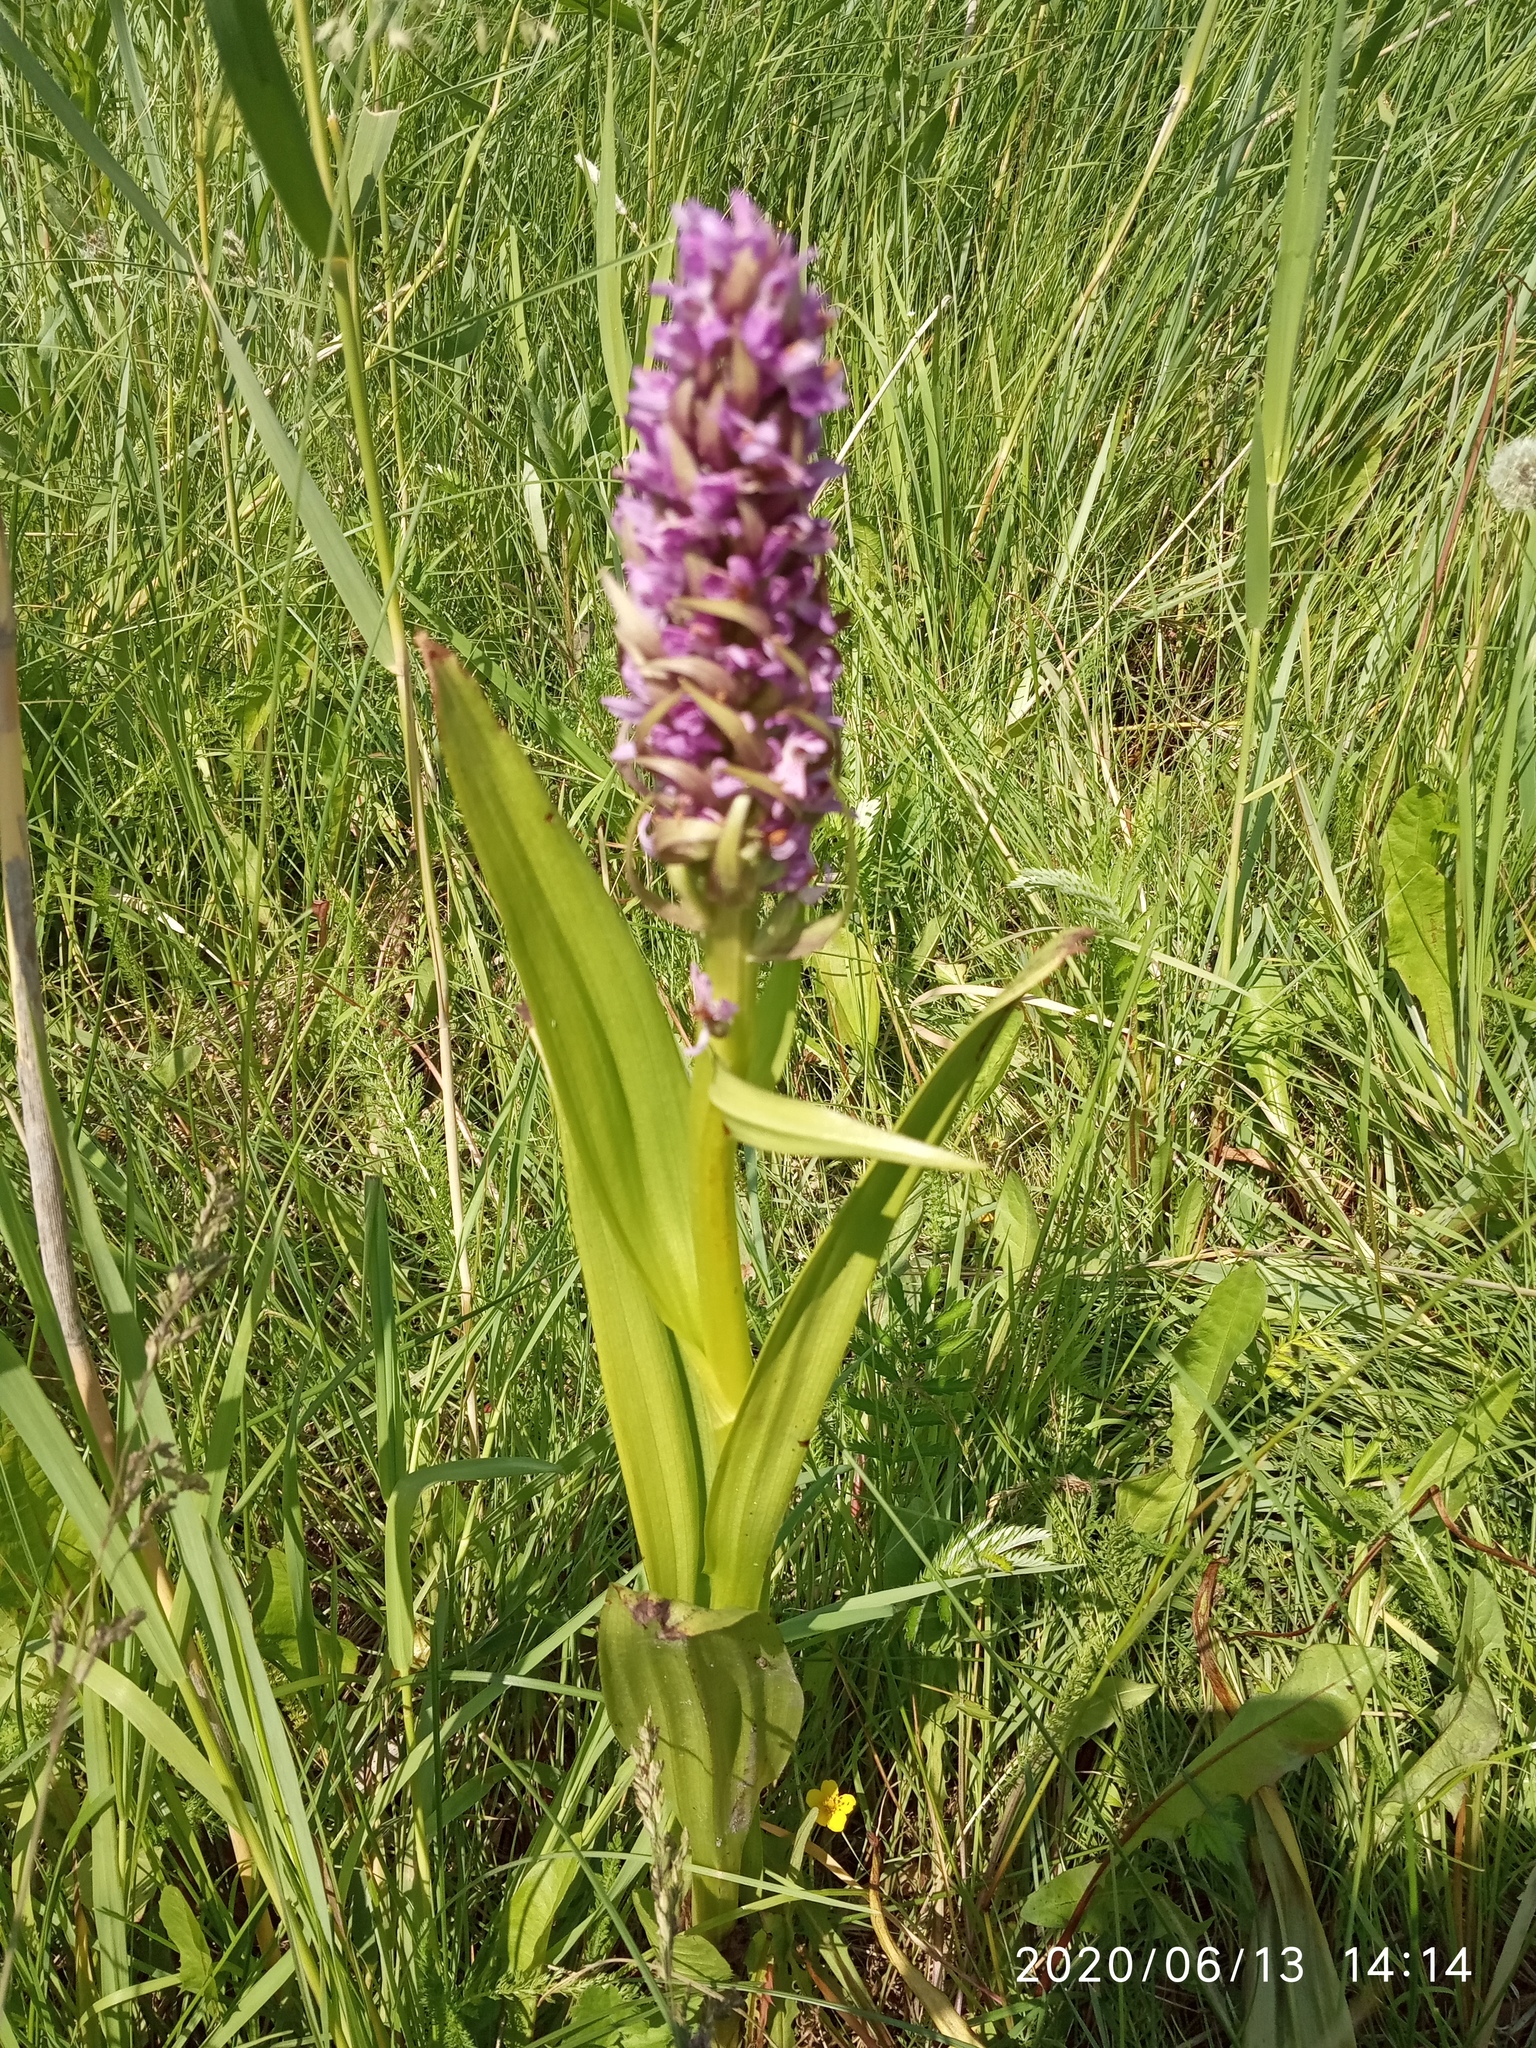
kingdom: Plantae
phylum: Tracheophyta
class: Liliopsida
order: Asparagales
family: Orchidaceae
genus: Dactylorhiza
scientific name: Dactylorhiza incarnata
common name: Early marsh-orchid
